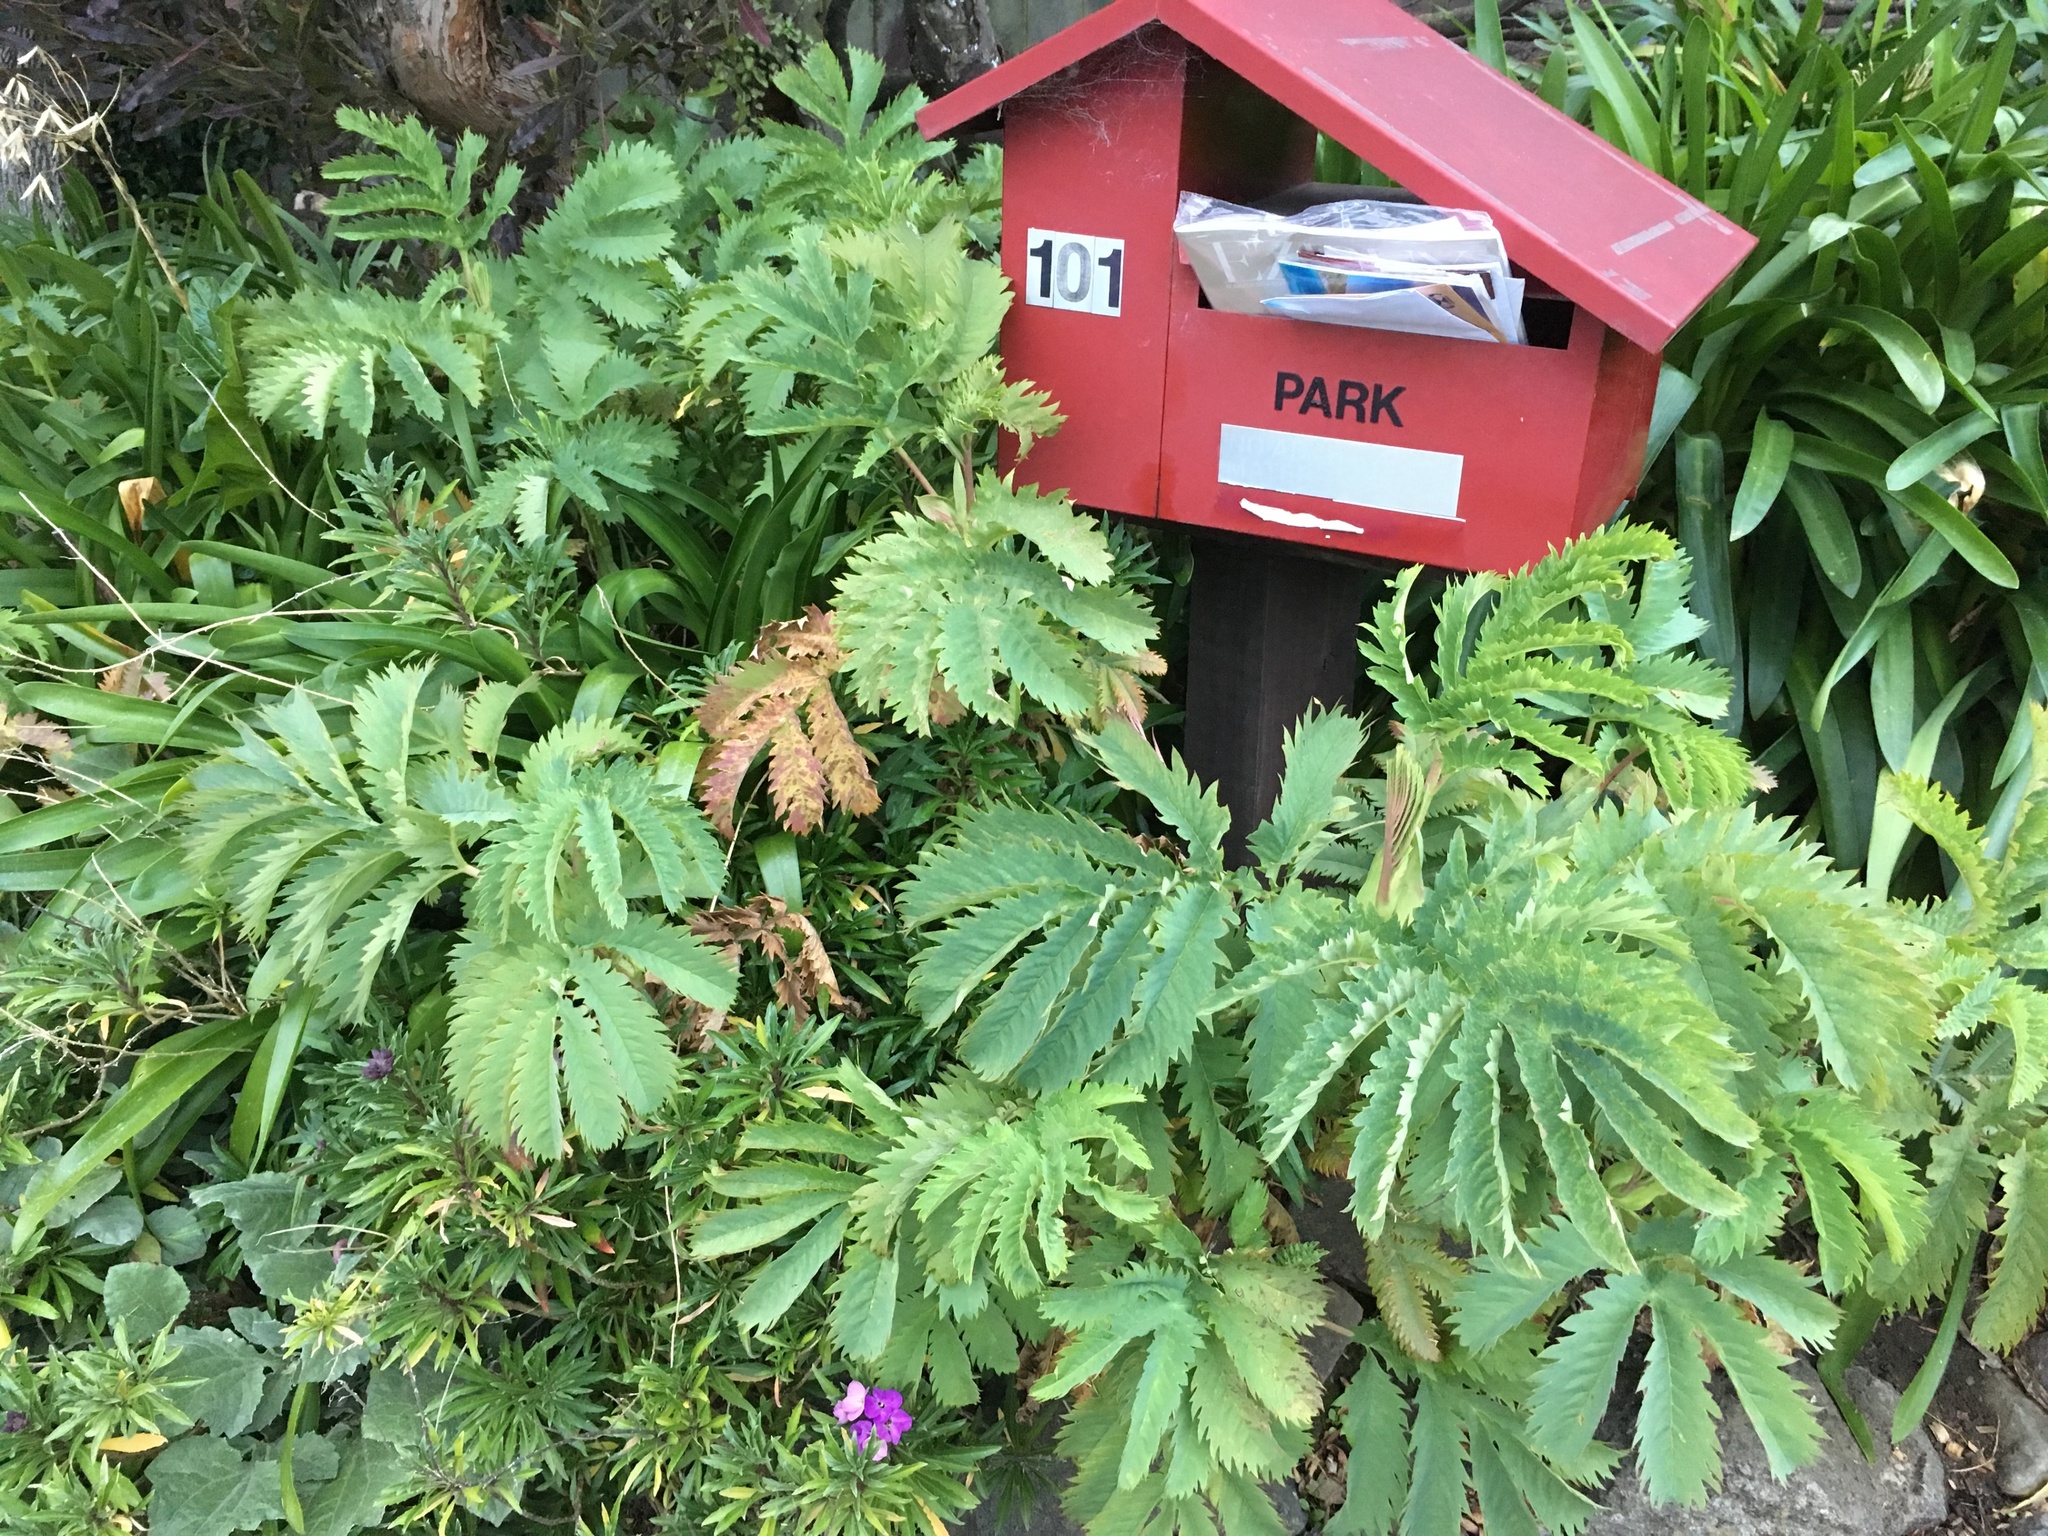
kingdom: Plantae
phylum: Tracheophyta
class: Magnoliopsida
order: Geraniales
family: Melianthaceae
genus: Melianthus
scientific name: Melianthus major
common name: Honey-flower
